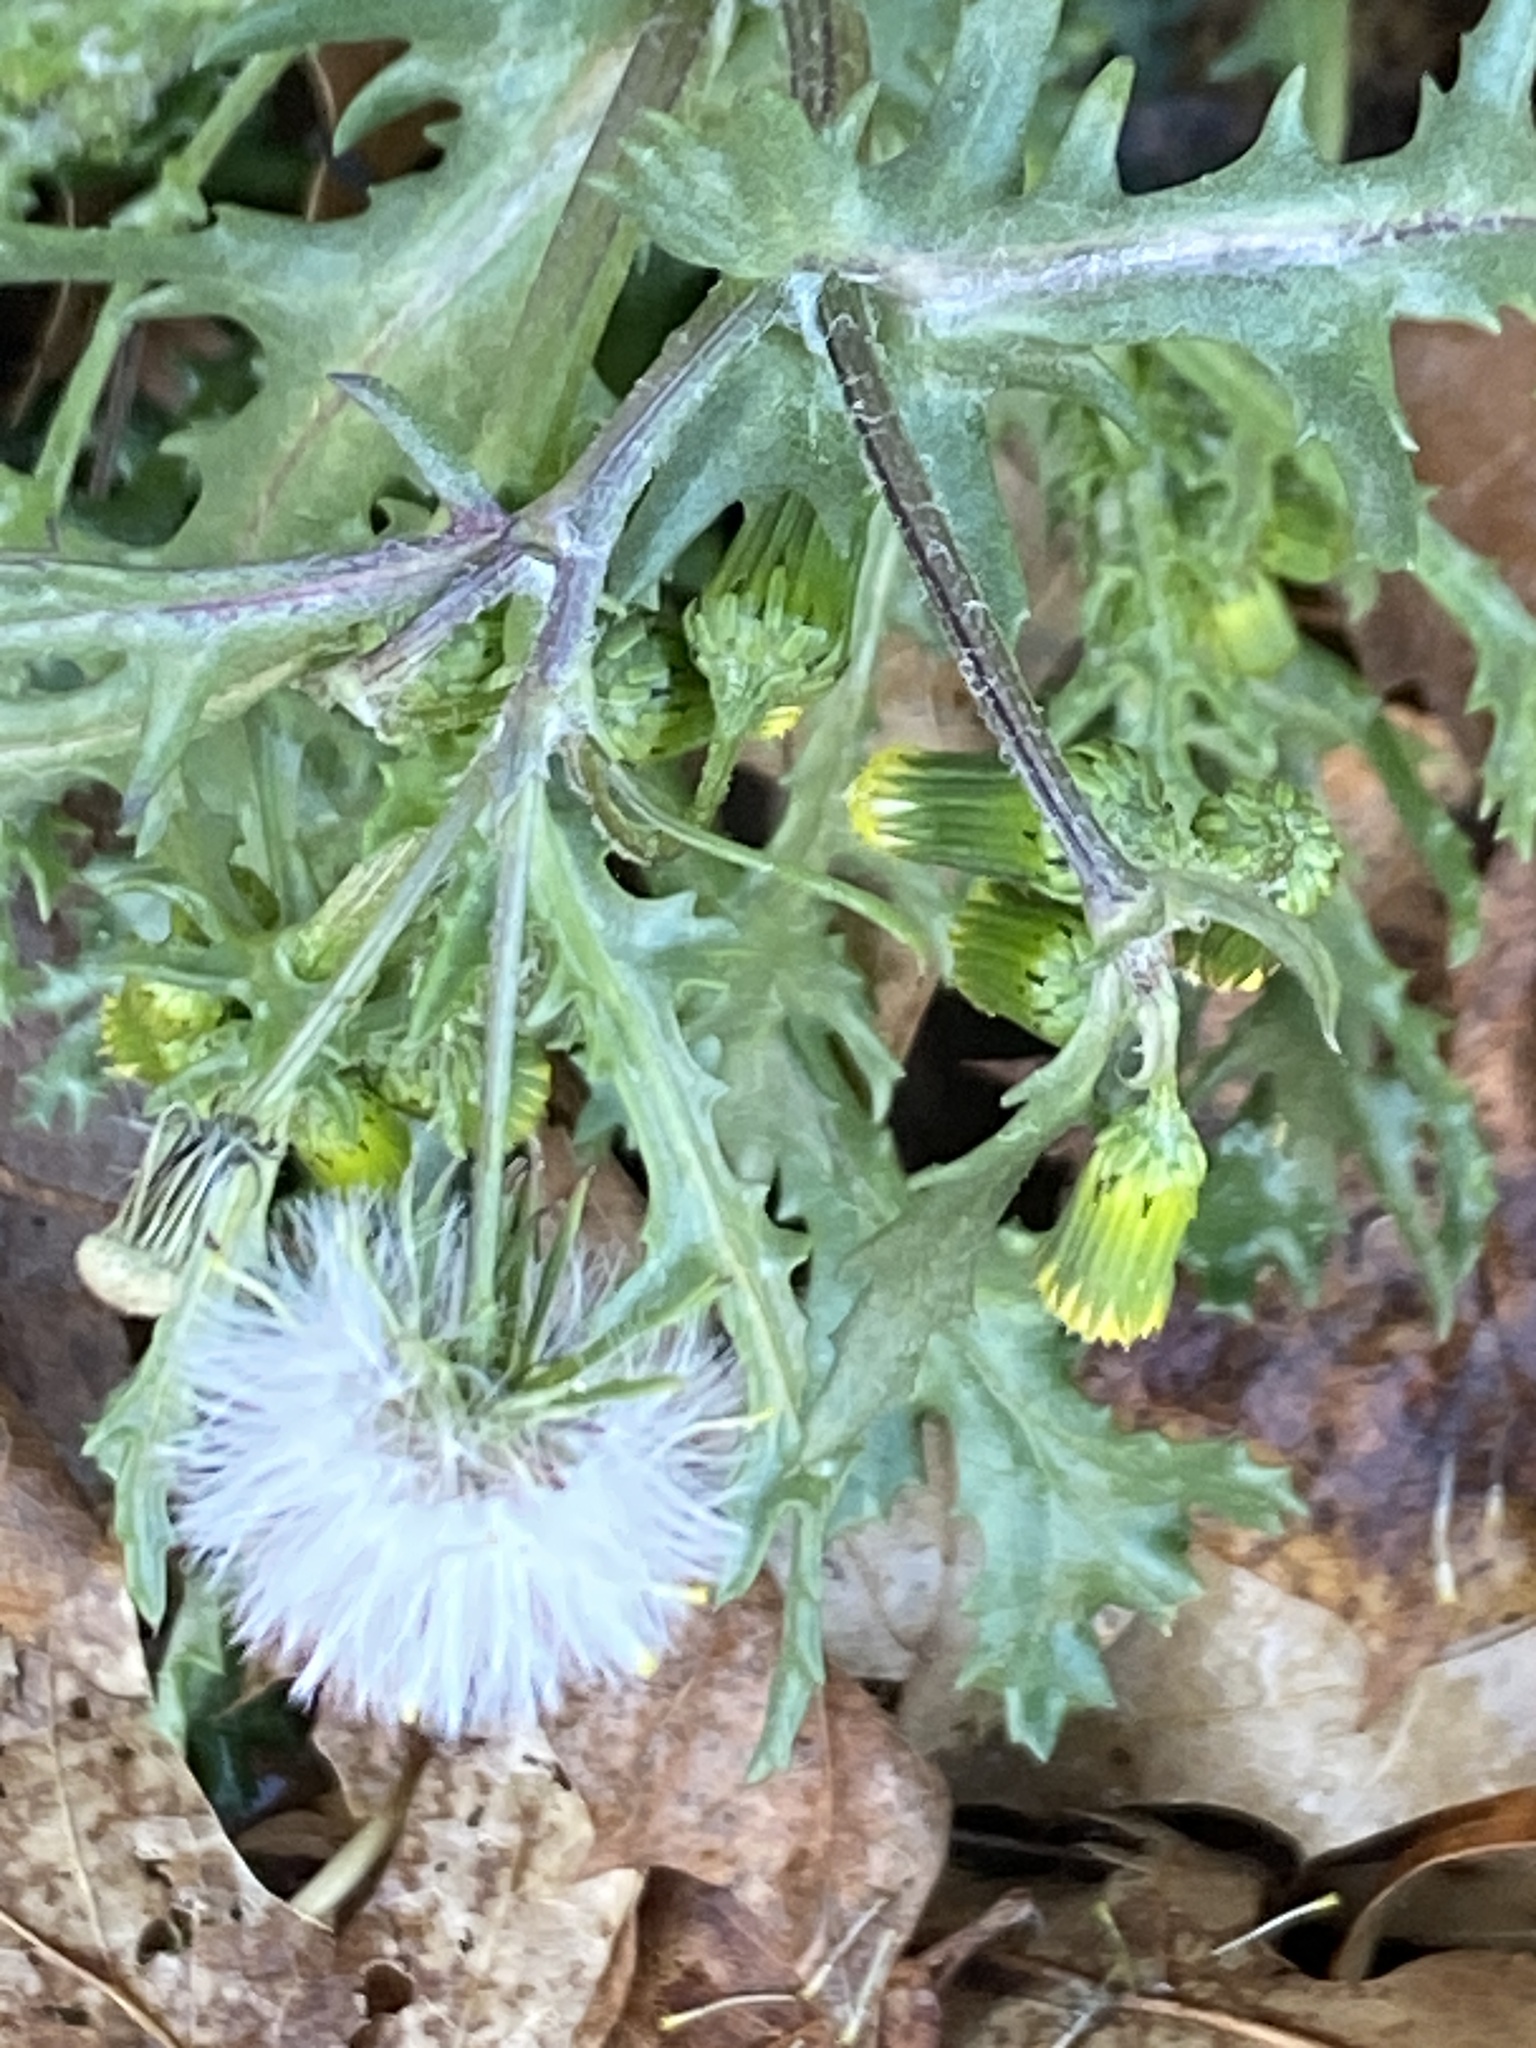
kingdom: Plantae
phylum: Tracheophyta
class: Magnoliopsida
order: Asterales
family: Asteraceae
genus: Senecio
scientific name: Senecio vulgaris
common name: Old-man-in-the-spring
